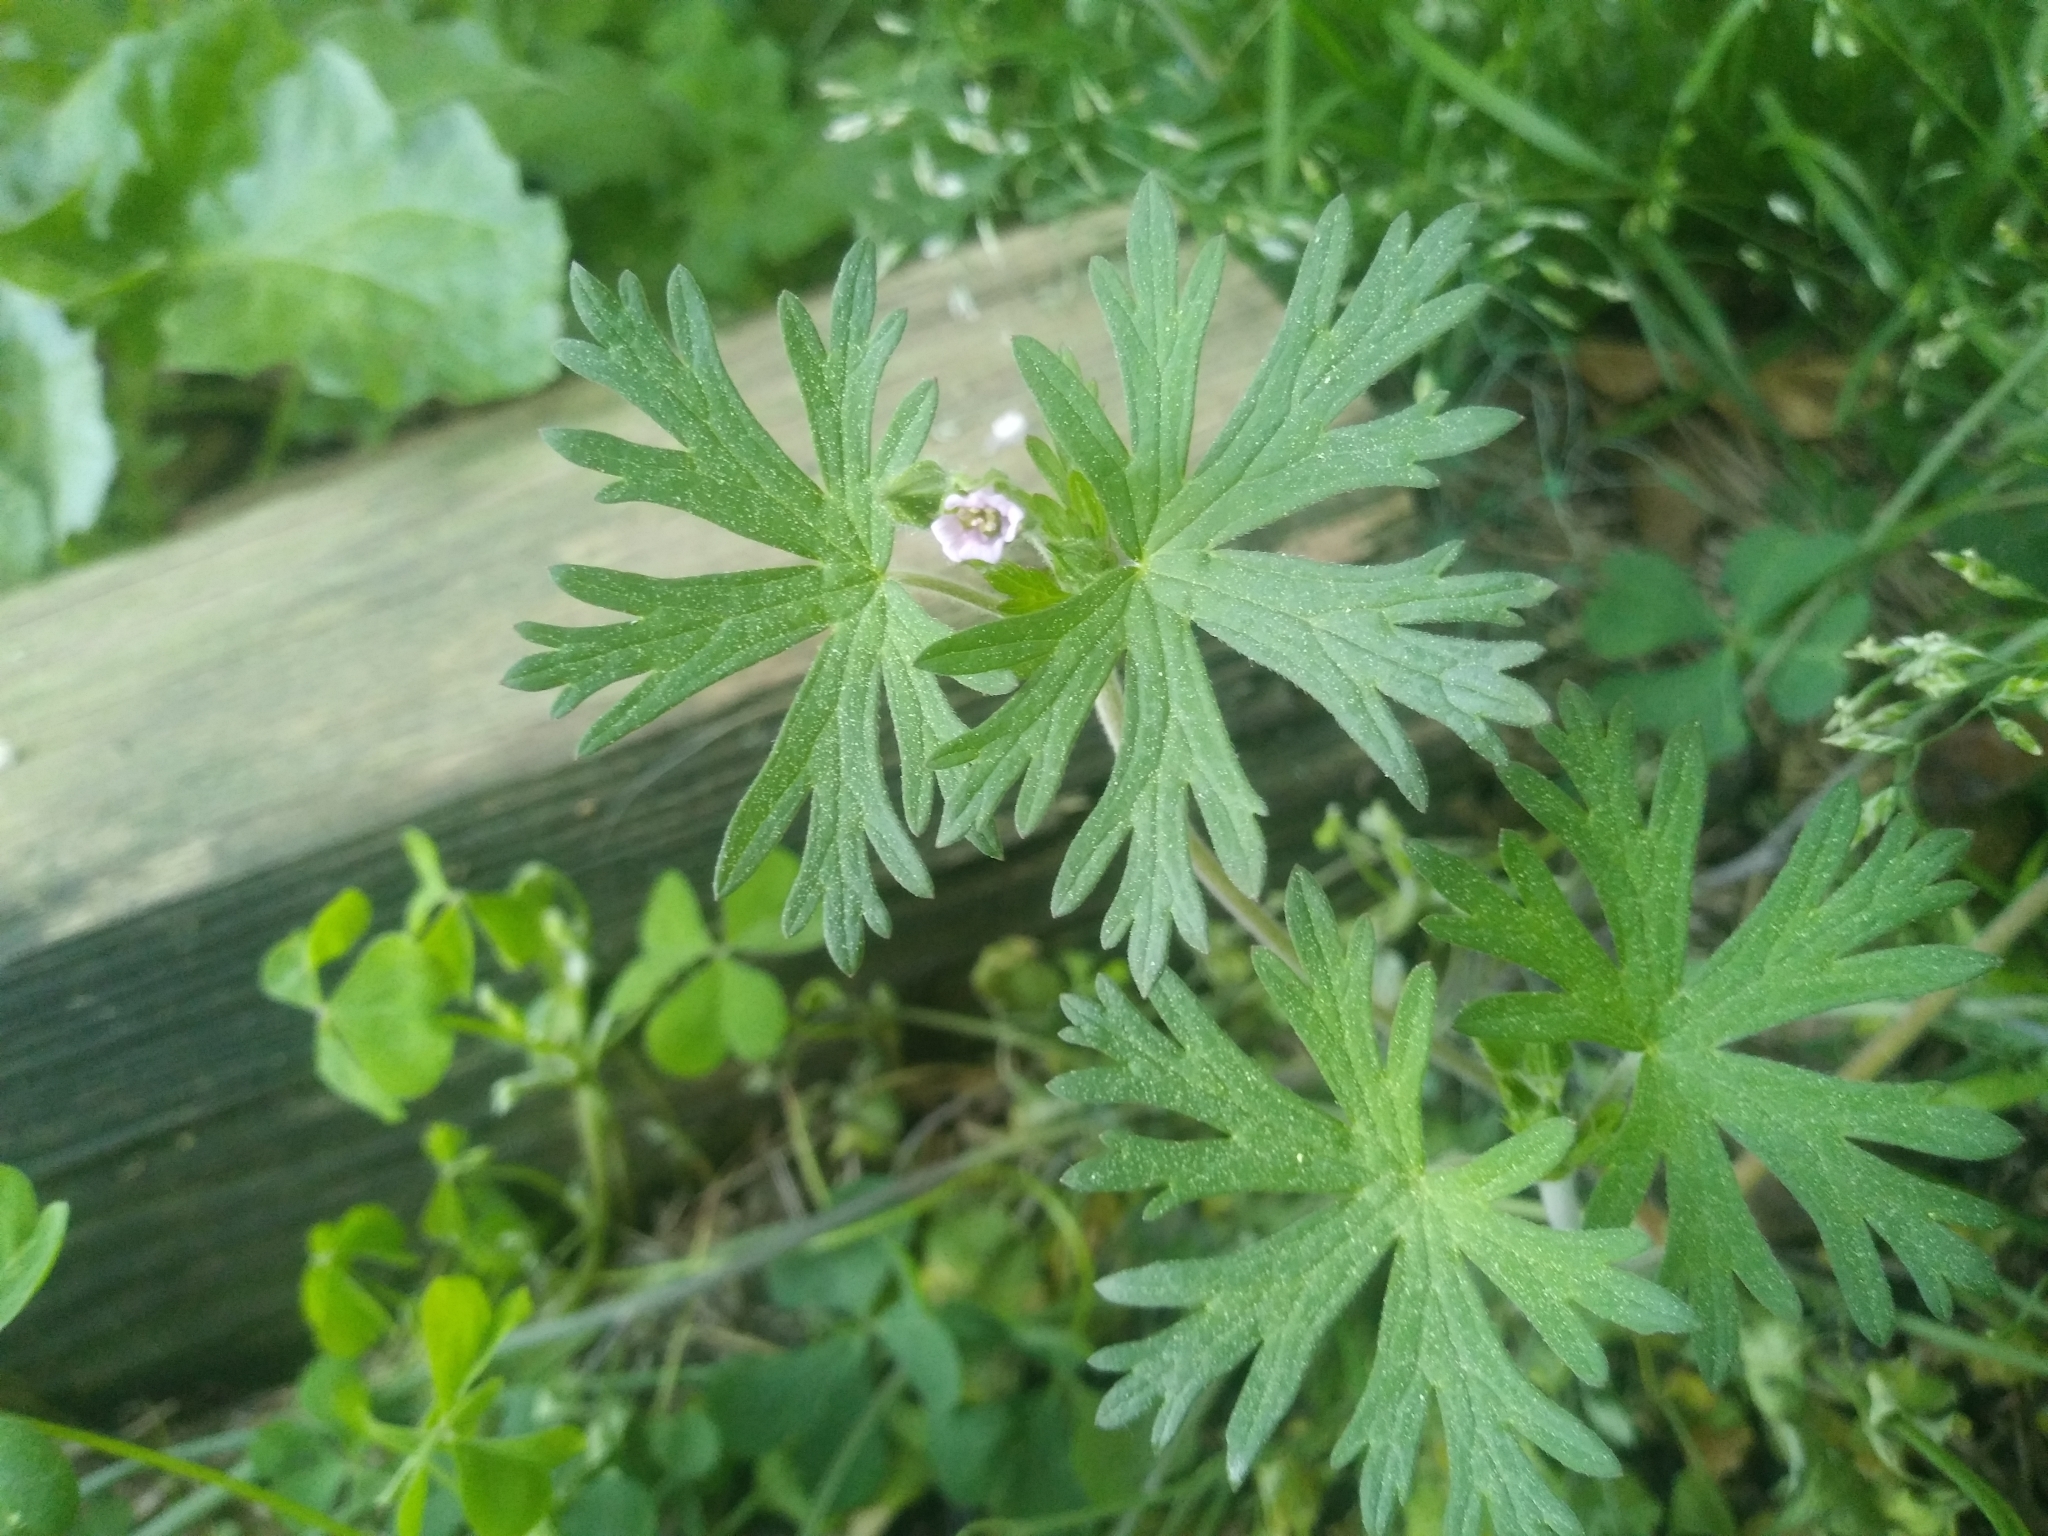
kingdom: Plantae
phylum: Tracheophyta
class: Magnoliopsida
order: Geraniales
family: Geraniaceae
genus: Geranium
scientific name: Geranium carolinianum
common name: Carolina crane's-bill
